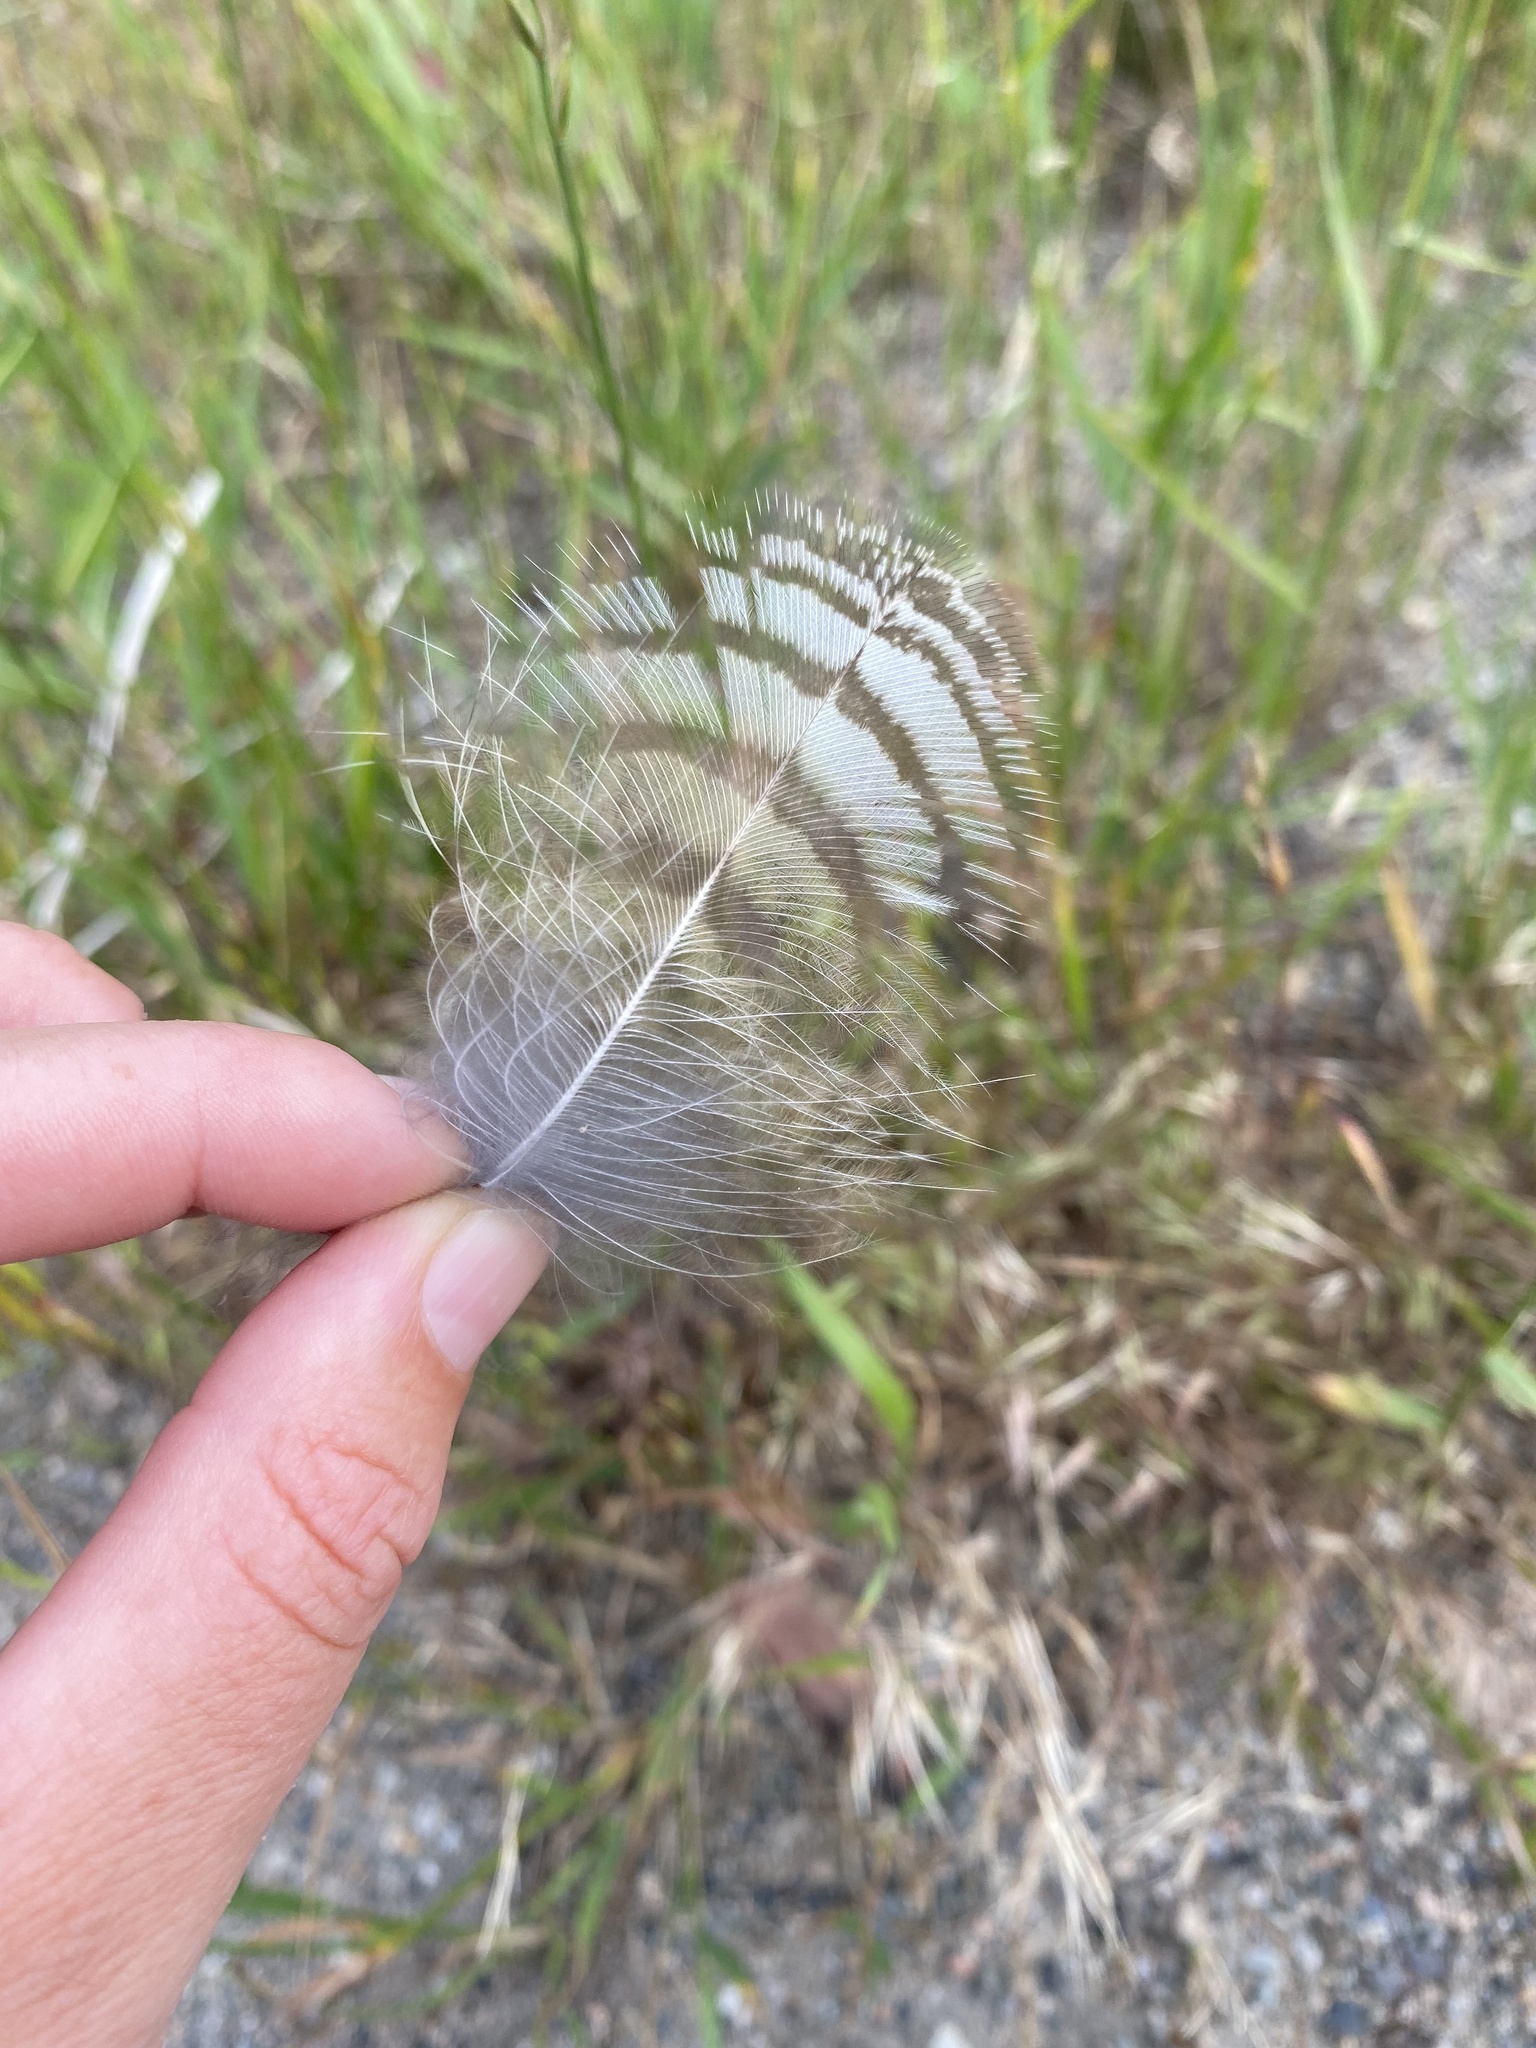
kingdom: Animalia
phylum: Chordata
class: Aves
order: Strigiformes
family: Strigidae
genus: Bubo
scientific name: Bubo virginianus
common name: Great horned owl
